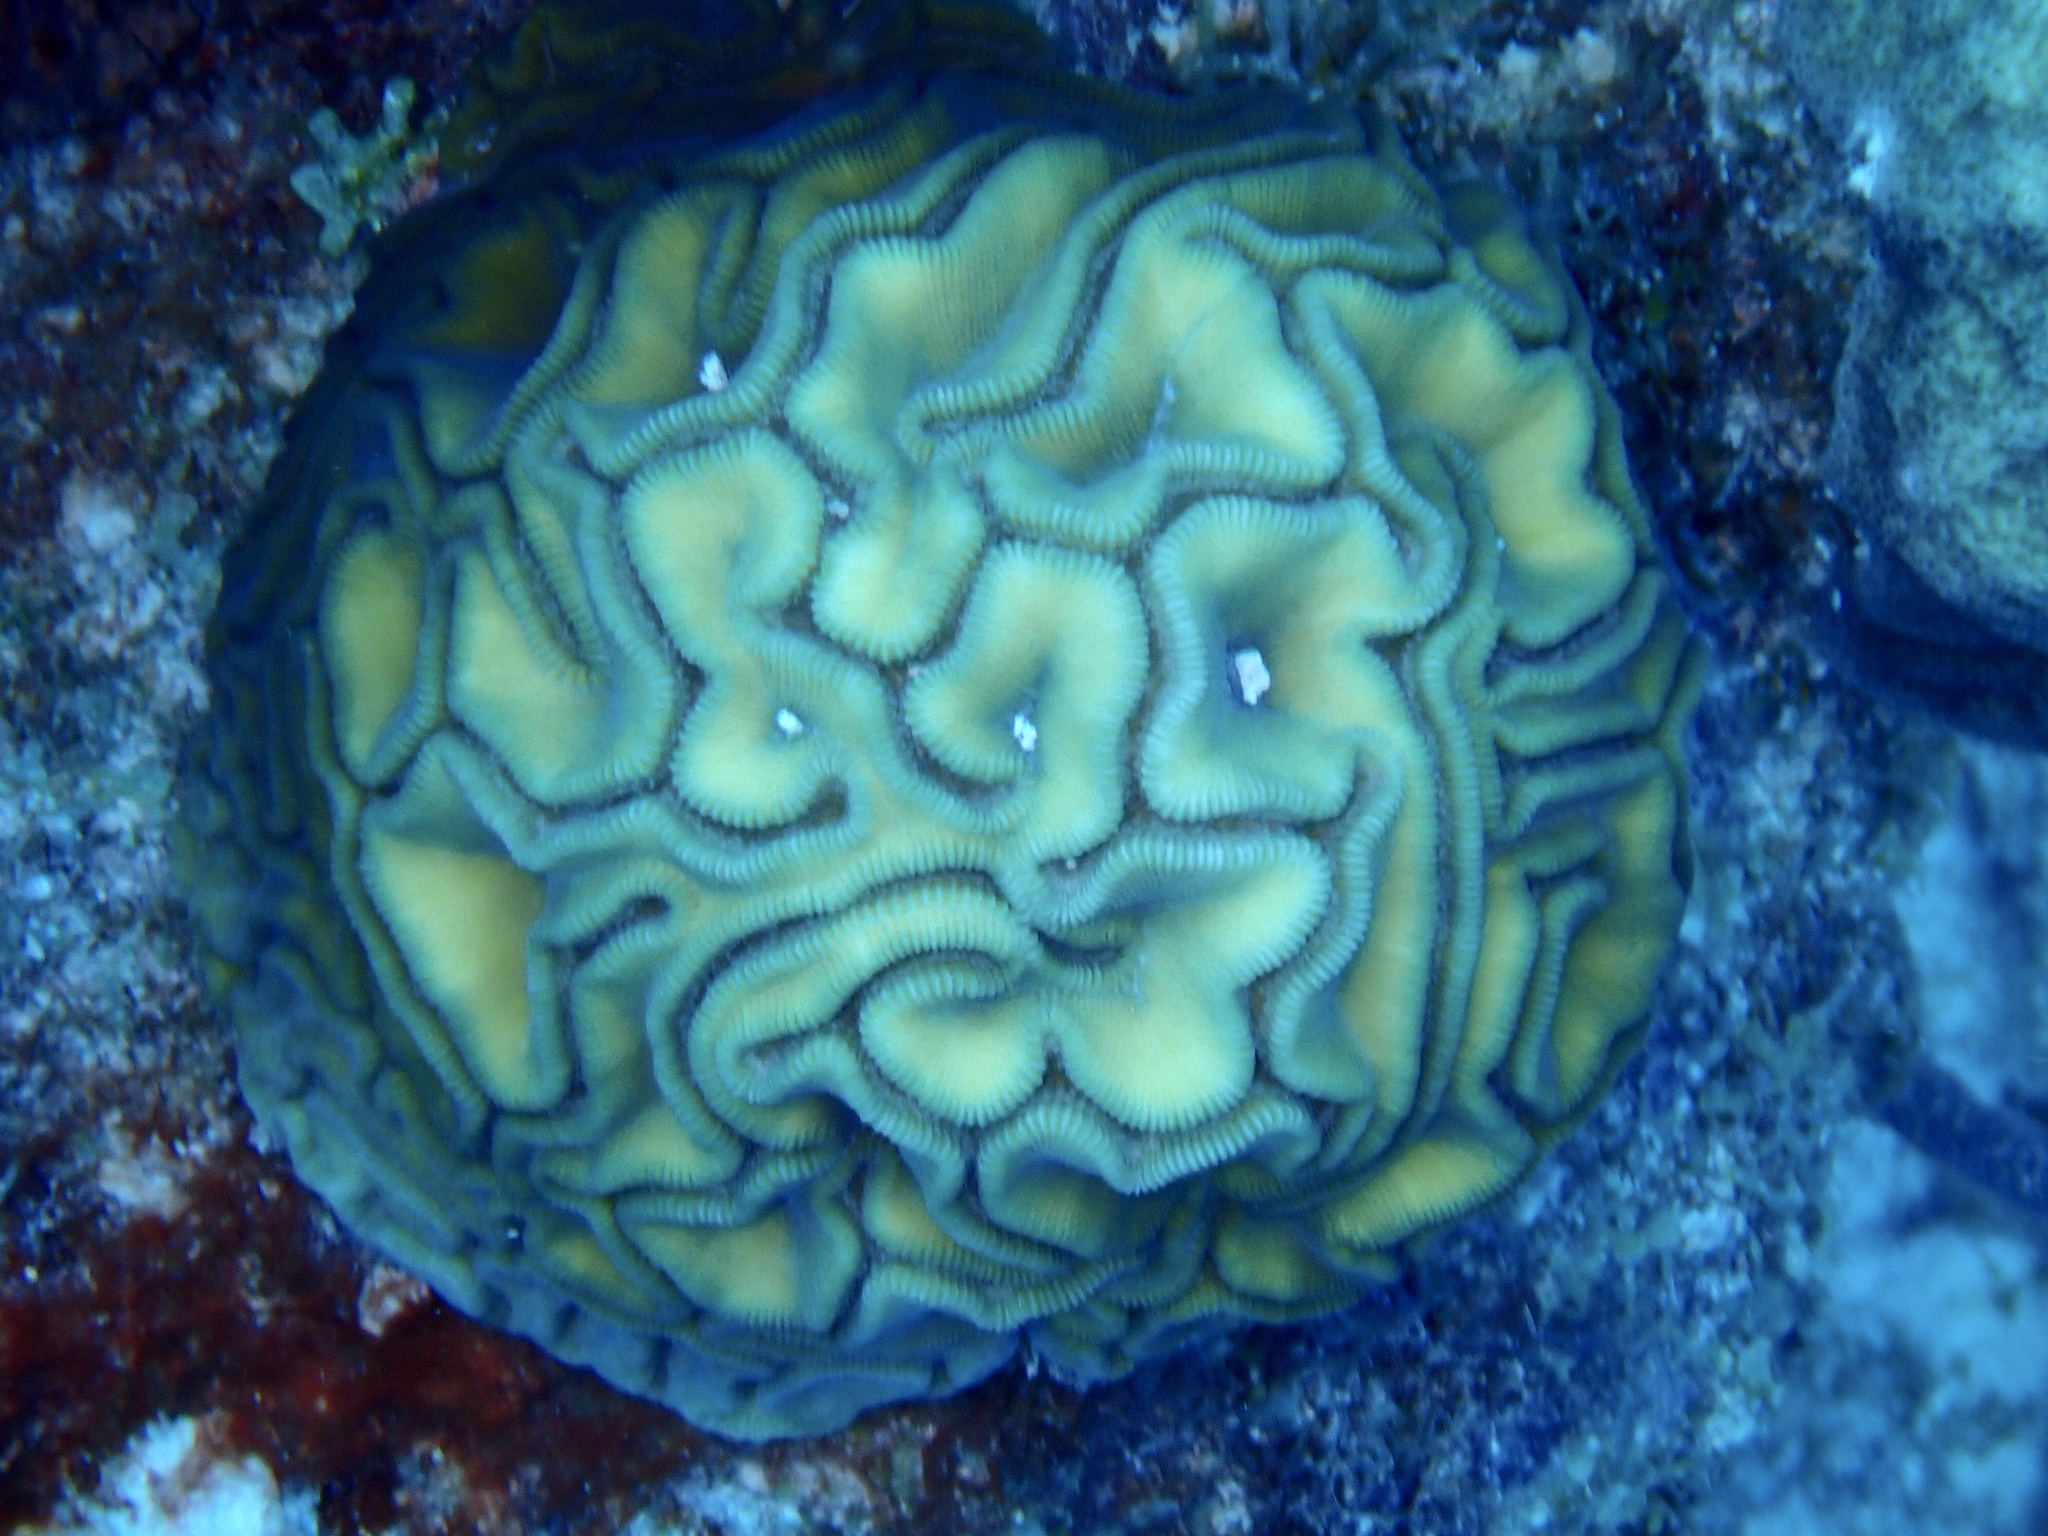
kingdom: Animalia
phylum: Cnidaria
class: Anthozoa
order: Scleractinia
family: Faviidae
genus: Diploria
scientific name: Diploria labyrinthiformis
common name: Grooved brain coral
